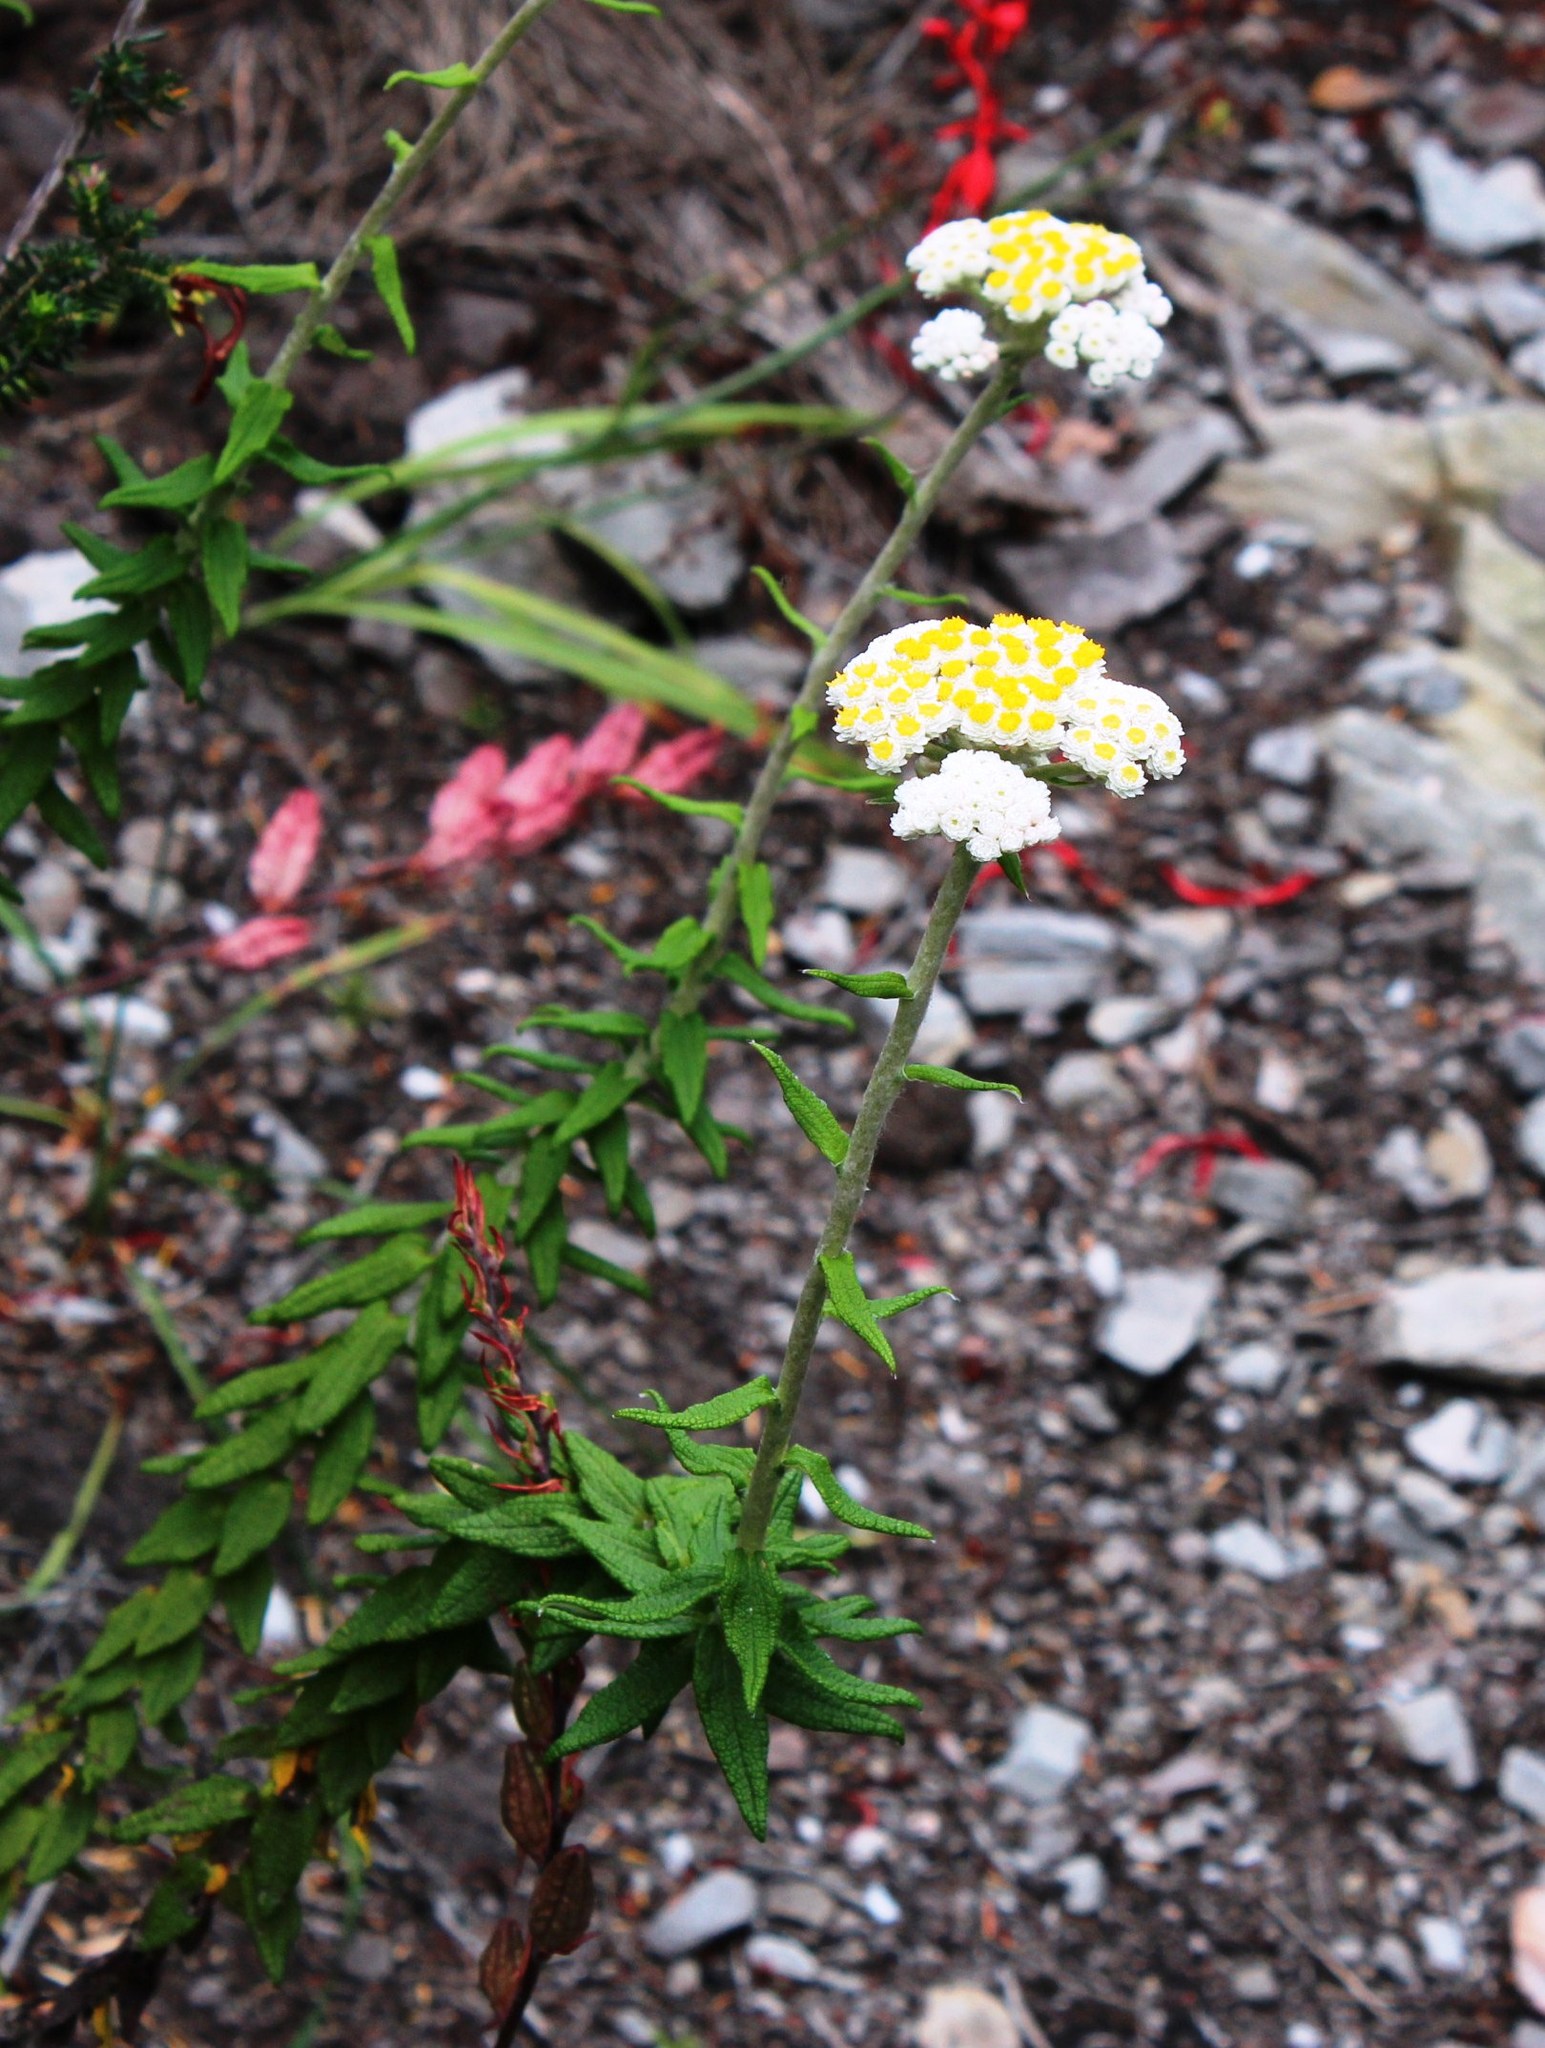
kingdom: Plantae
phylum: Tracheophyta
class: Magnoliopsida
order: Asterales
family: Asteraceae
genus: Helichrysum
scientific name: Helichrysum felinum
